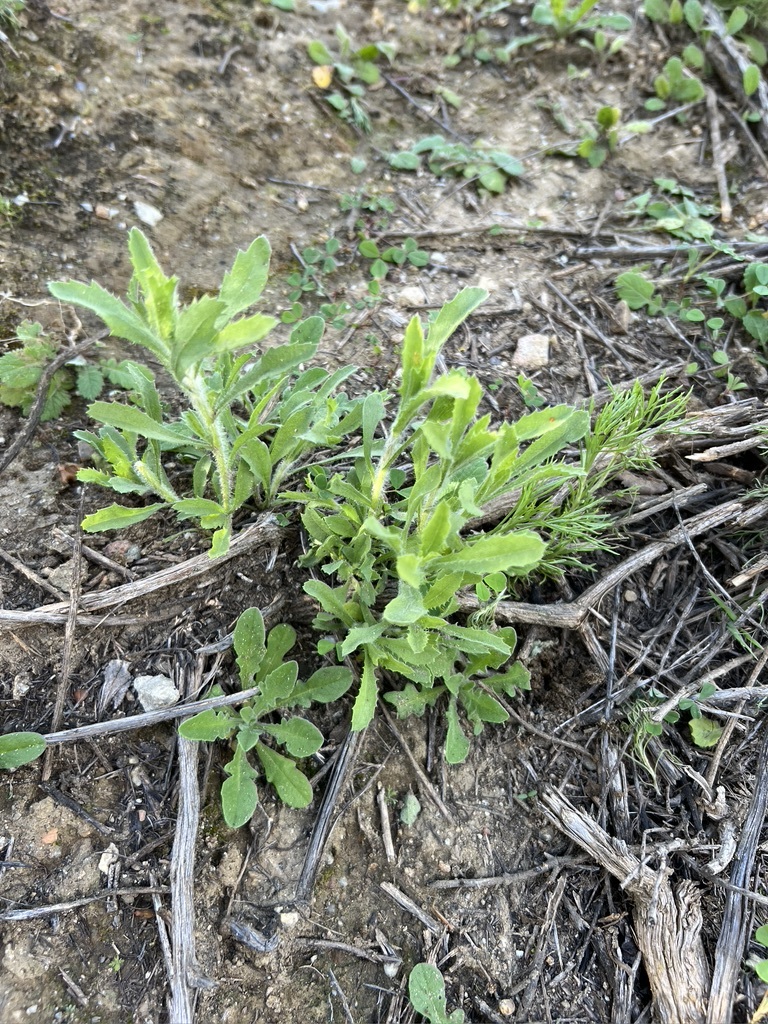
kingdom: Plantae
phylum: Tracheophyta
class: Magnoliopsida
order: Asterales
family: Asteraceae
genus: Isocoma
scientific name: Isocoma menziesii
